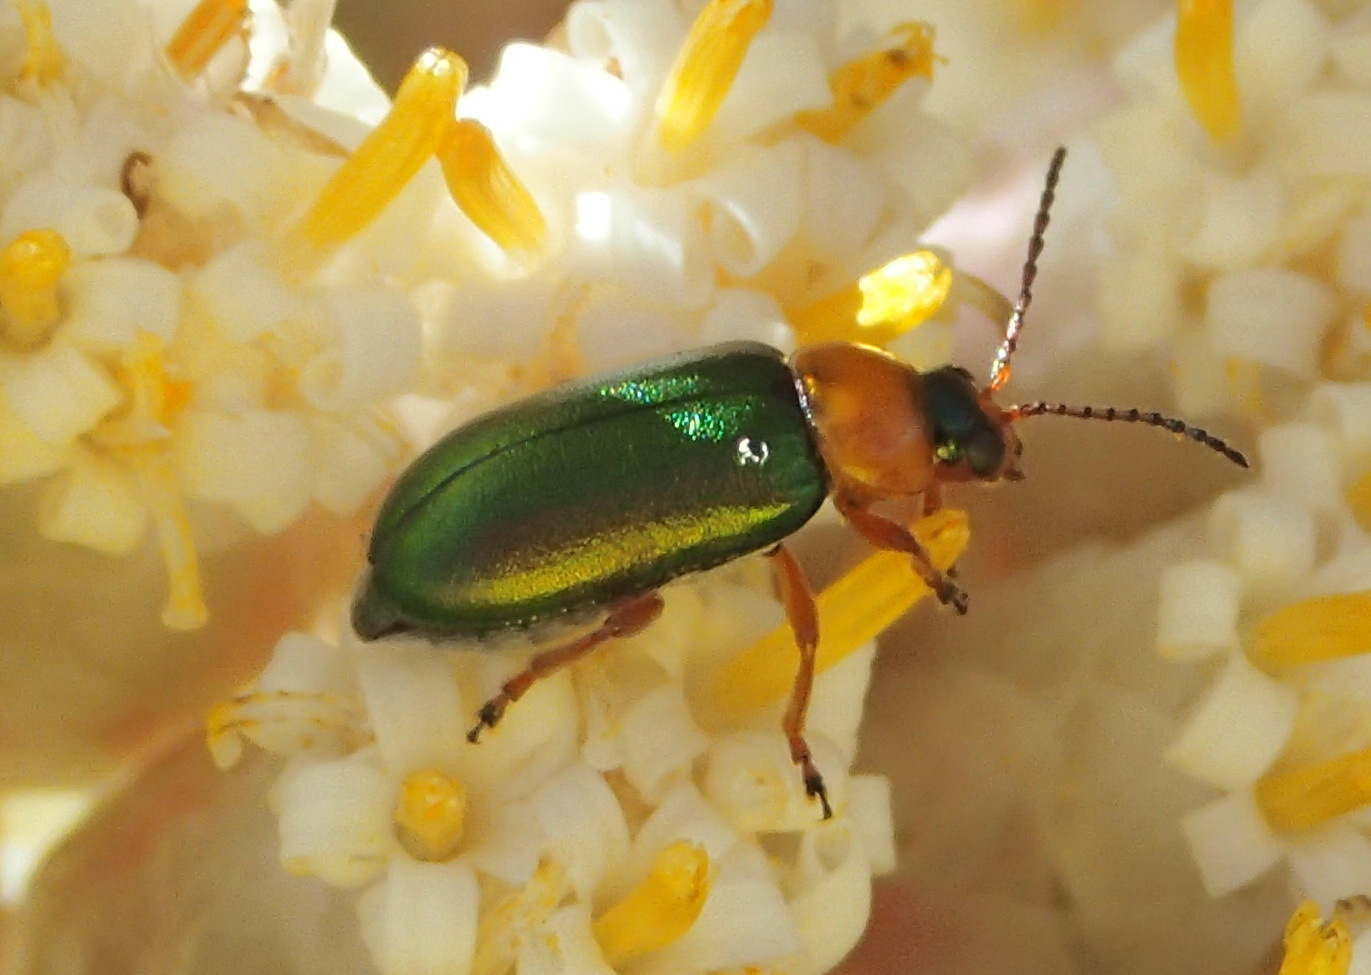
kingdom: Animalia
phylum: Arthropoda
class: Insecta
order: Coleoptera
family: Chrysomelidae
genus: Palaeophylia
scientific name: Palaeophylia
